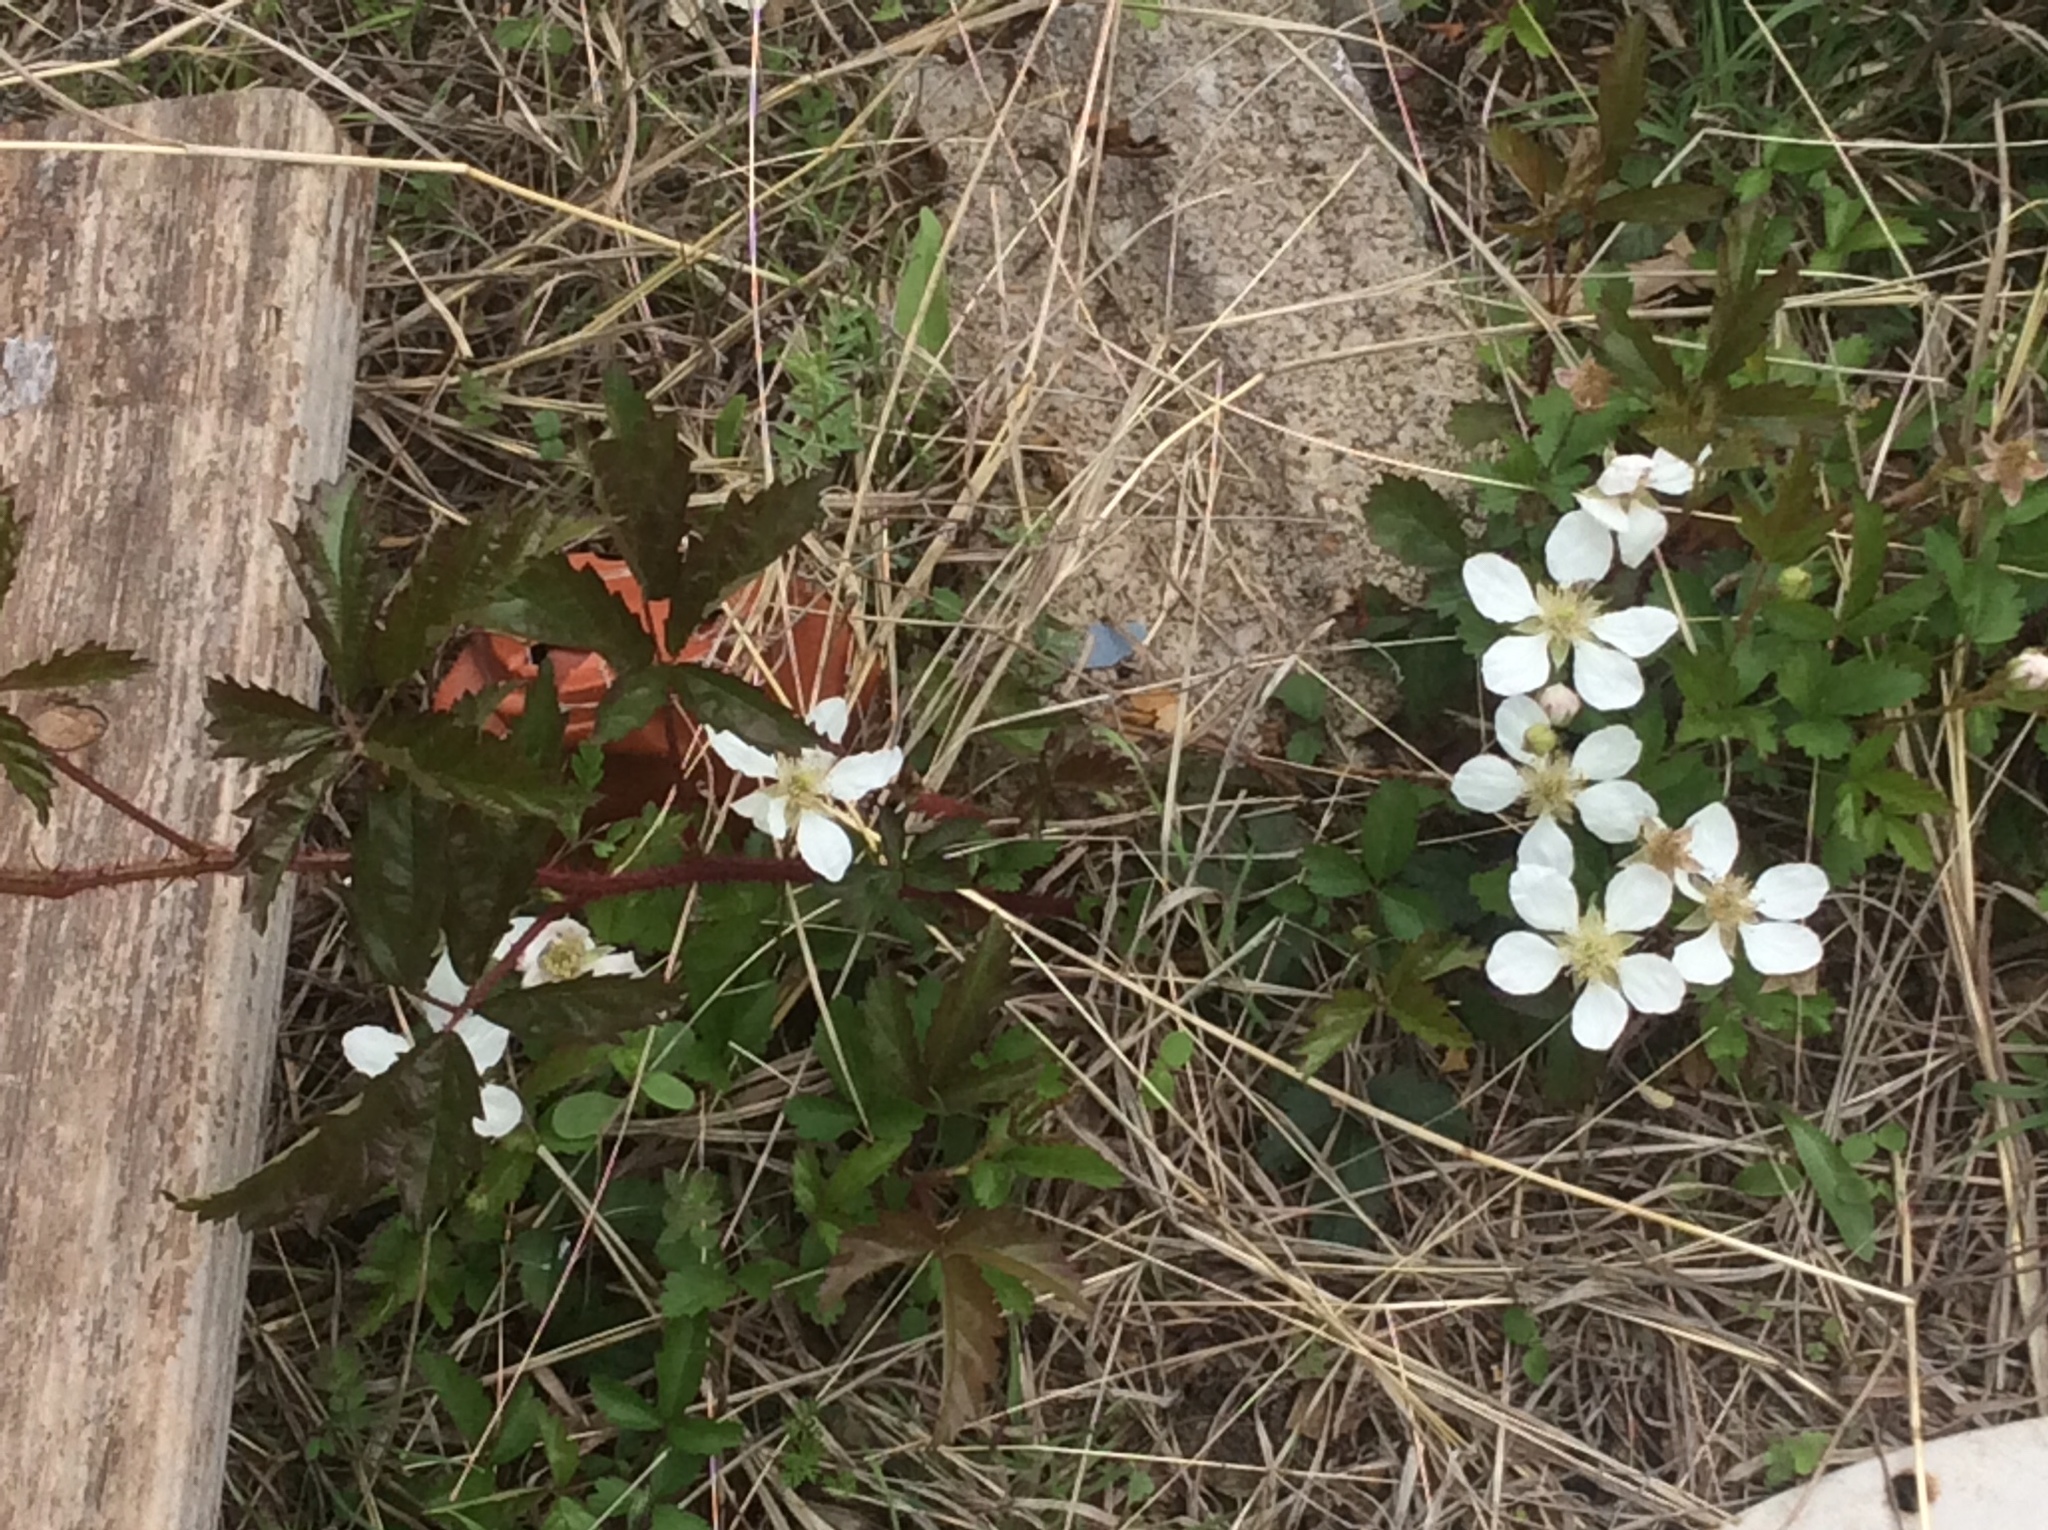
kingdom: Plantae
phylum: Tracheophyta
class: Magnoliopsida
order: Rosales
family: Rosaceae
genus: Rubus
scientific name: Rubus trivialis
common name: Southern dewberry
